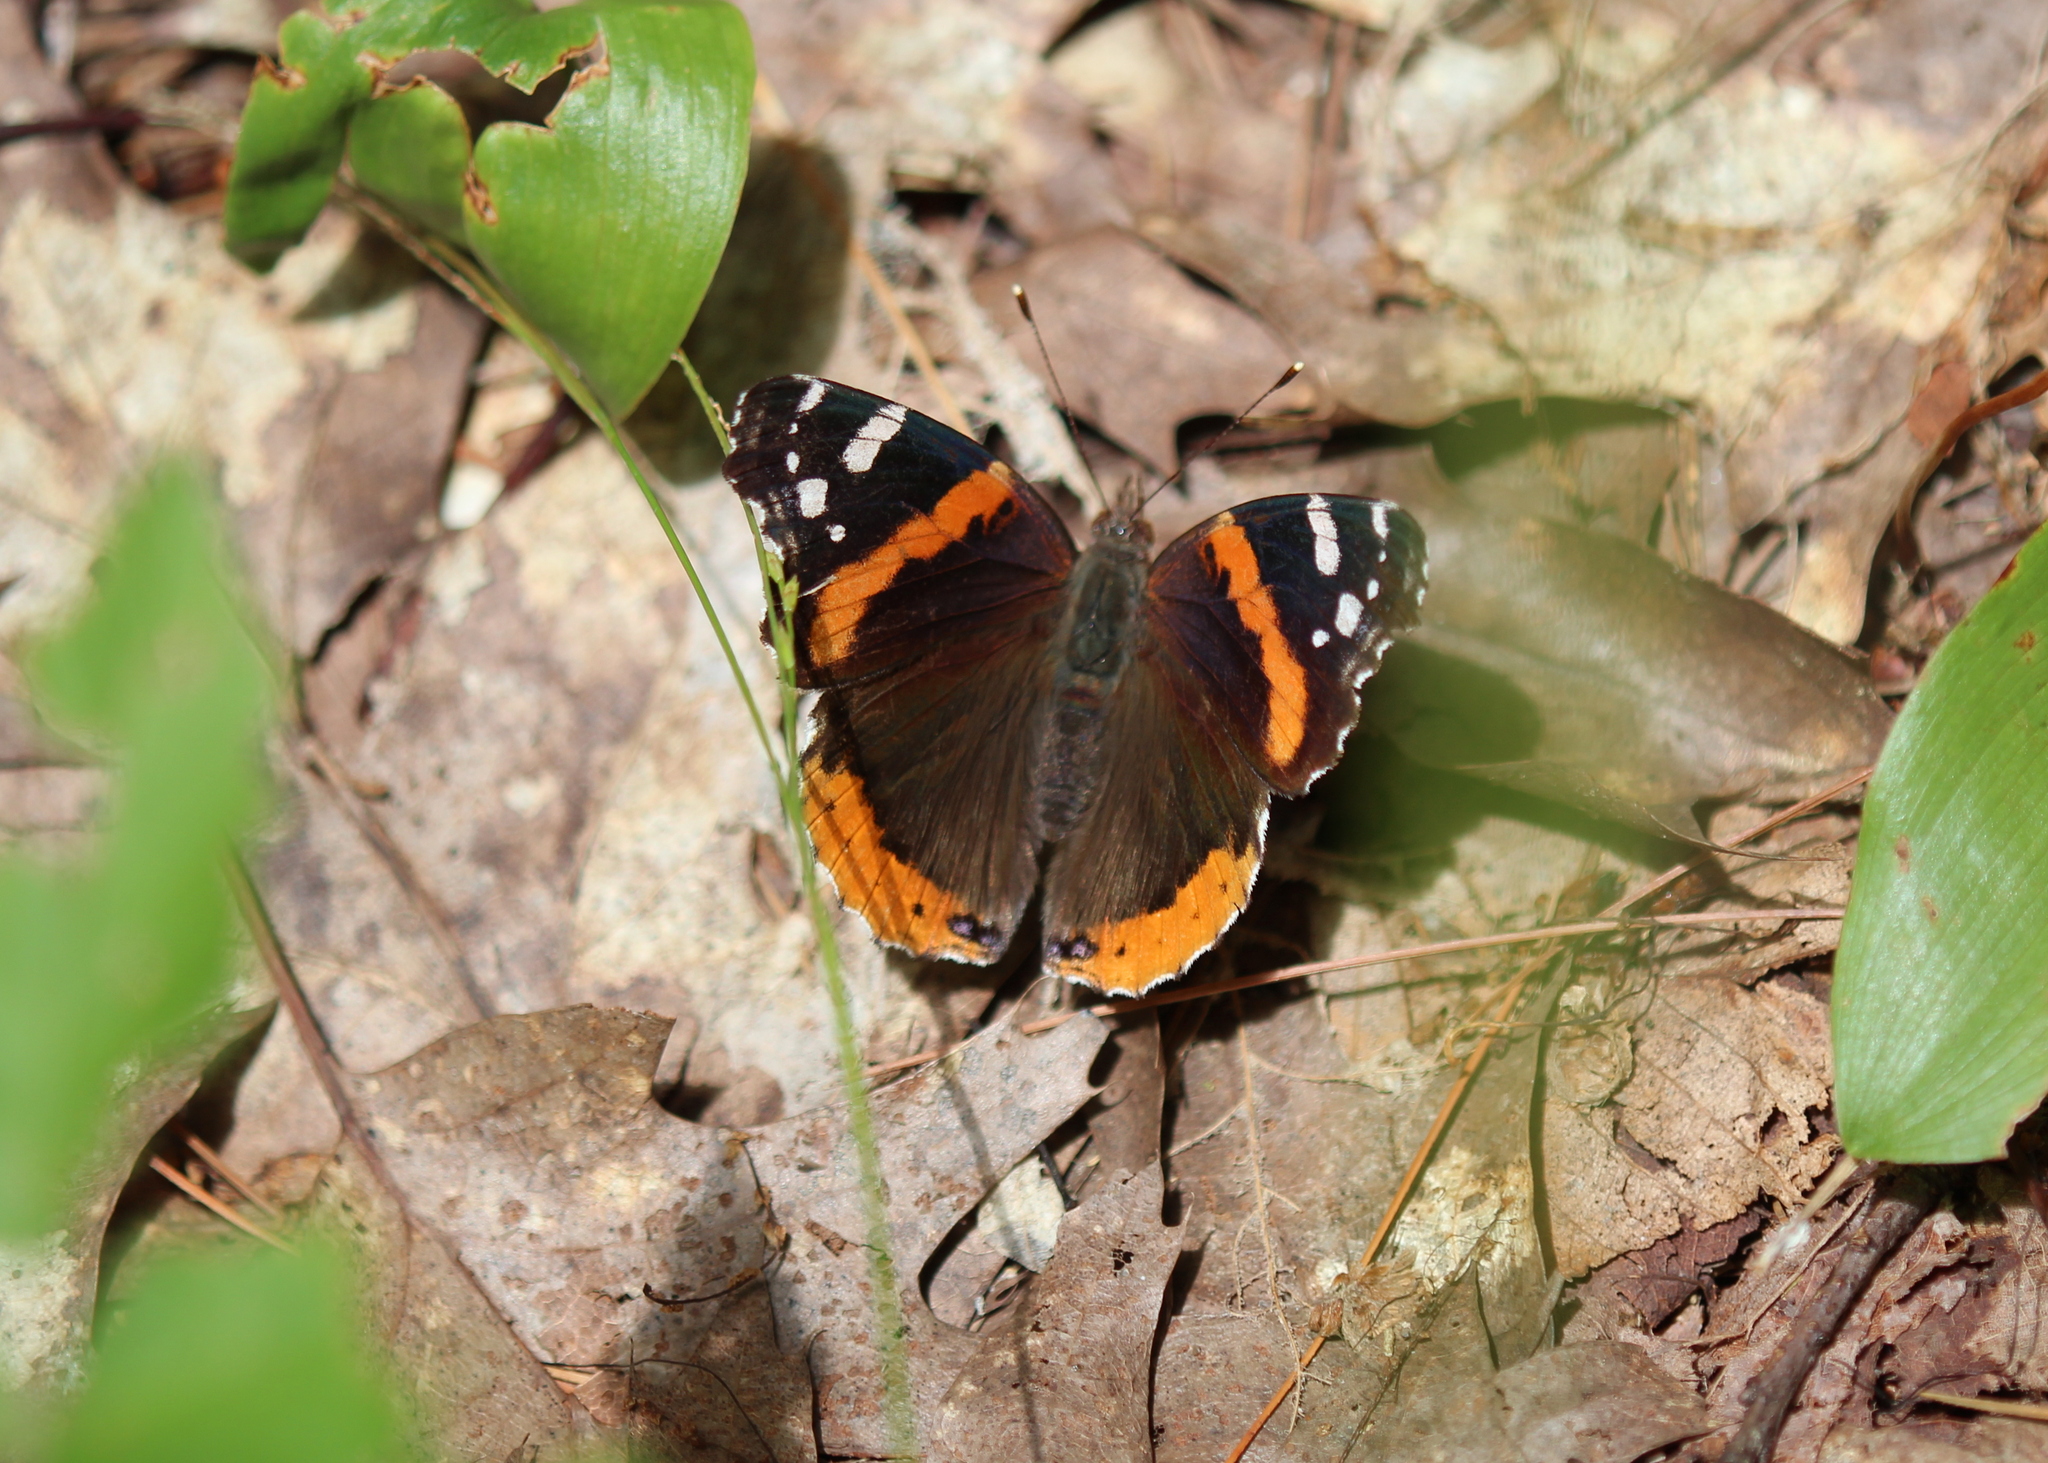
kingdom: Animalia
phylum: Arthropoda
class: Insecta
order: Lepidoptera
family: Nymphalidae
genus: Vanessa
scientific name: Vanessa atalanta
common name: Red admiral
